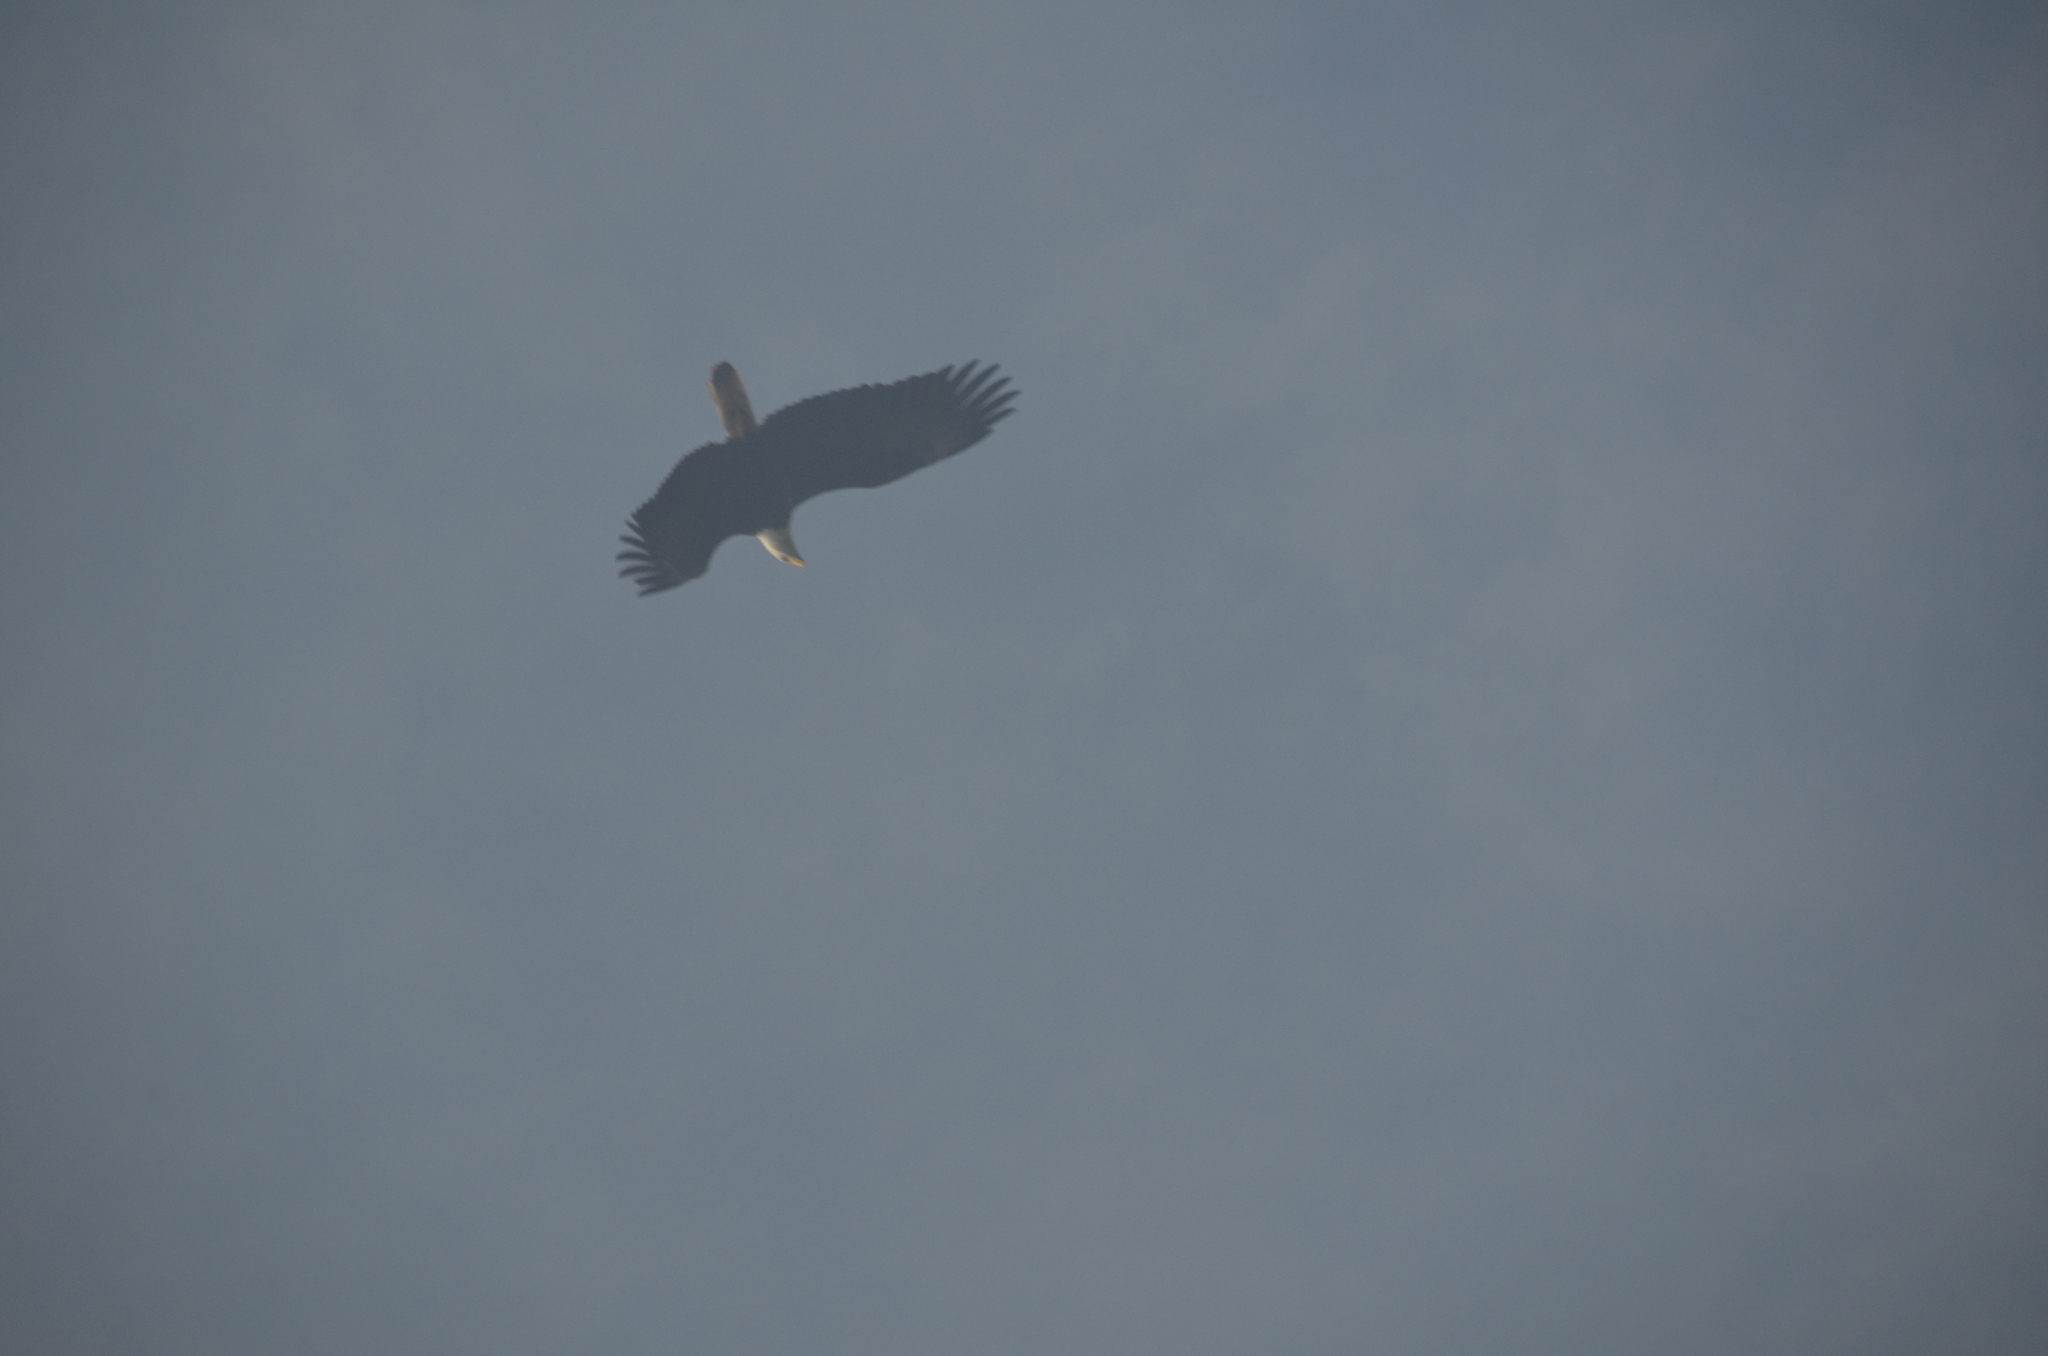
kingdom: Animalia
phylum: Chordata
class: Aves
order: Accipitriformes
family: Accipitridae
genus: Haliaeetus
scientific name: Haliaeetus leucocephalus
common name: Bald eagle
